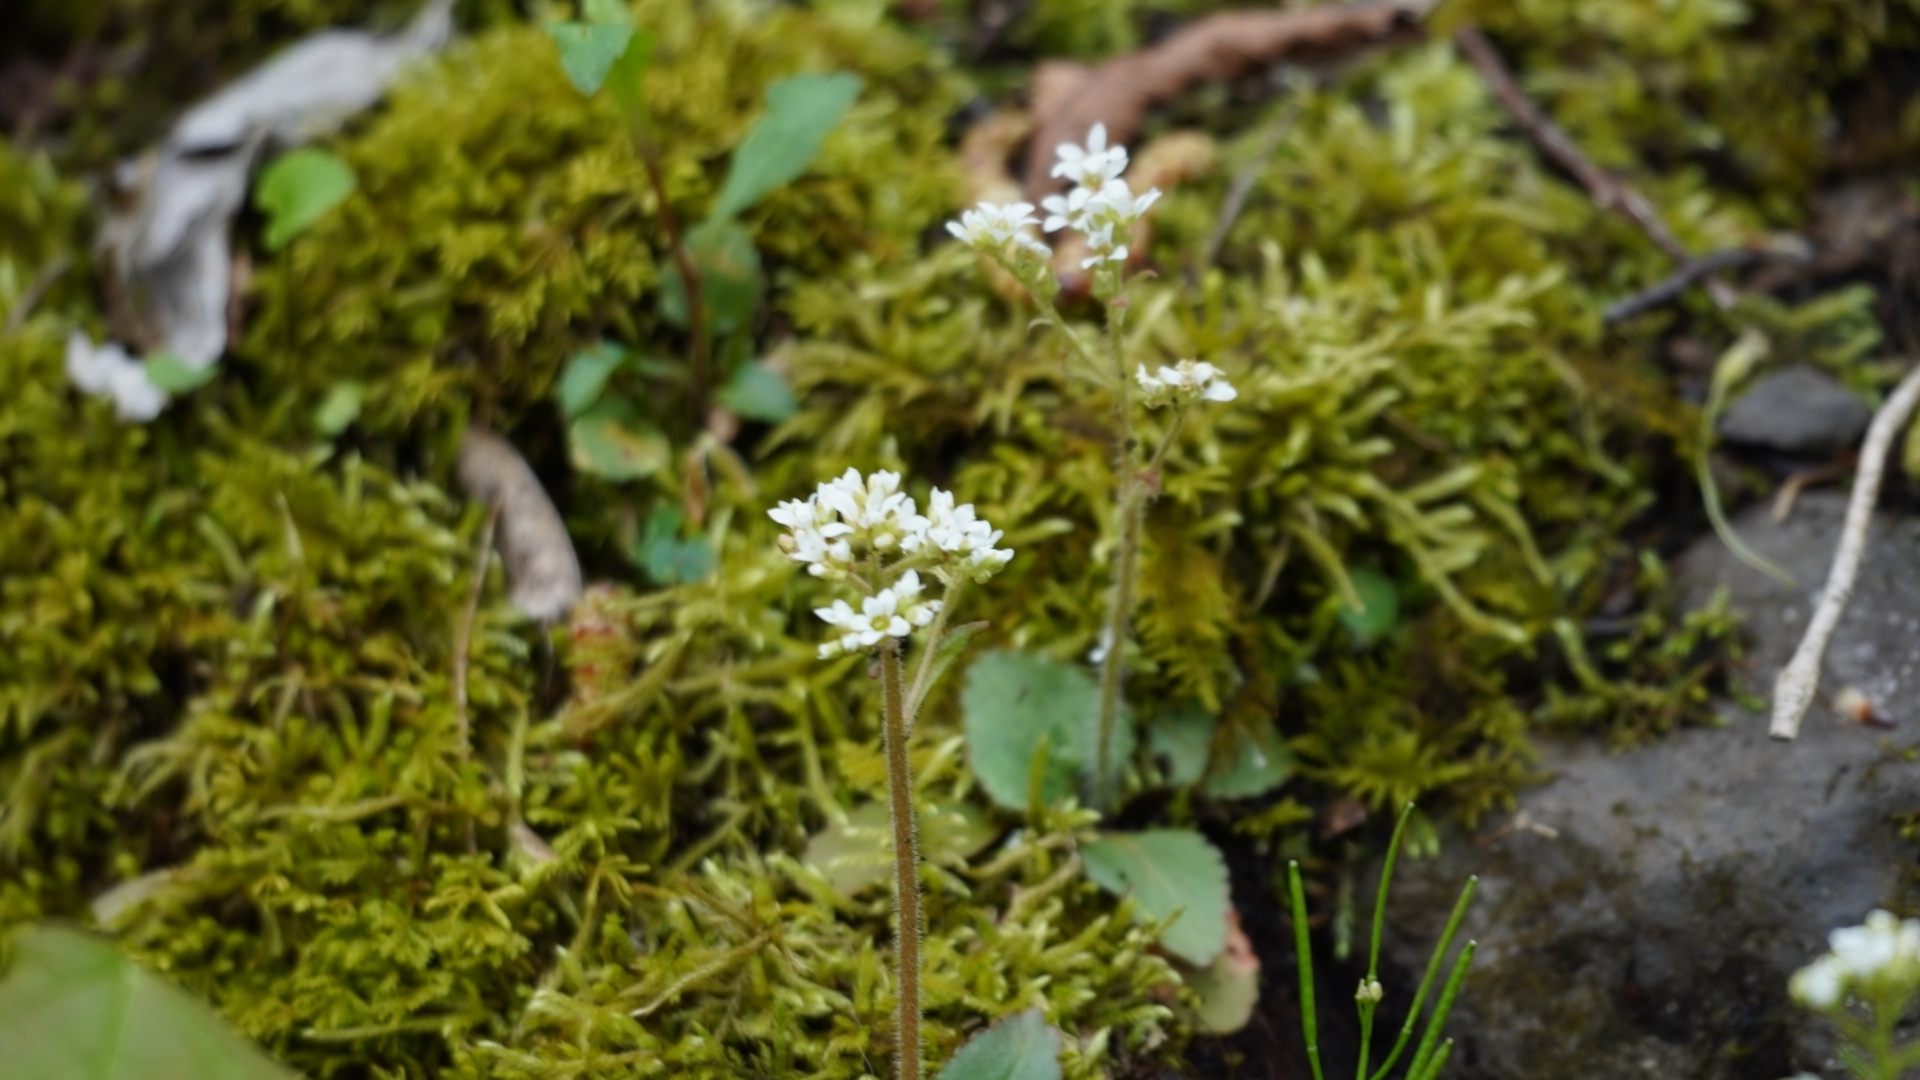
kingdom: Plantae
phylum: Tracheophyta
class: Magnoliopsida
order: Saxifragales
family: Saxifragaceae
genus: Micranthes
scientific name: Micranthes virginiensis
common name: Early saxifrage
